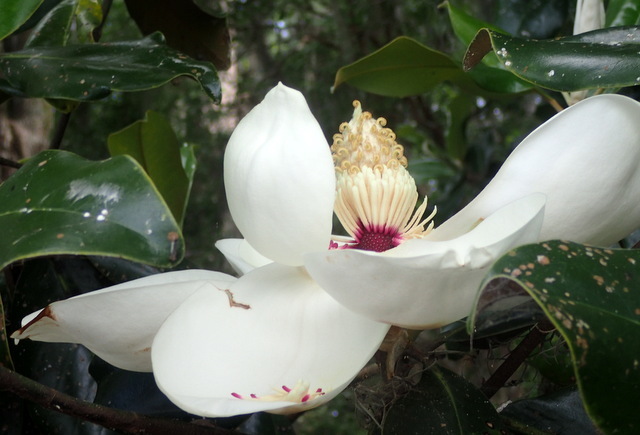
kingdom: Plantae
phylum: Tracheophyta
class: Magnoliopsida
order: Magnoliales
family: Magnoliaceae
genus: Magnolia
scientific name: Magnolia grandiflora
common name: Southern magnolia
